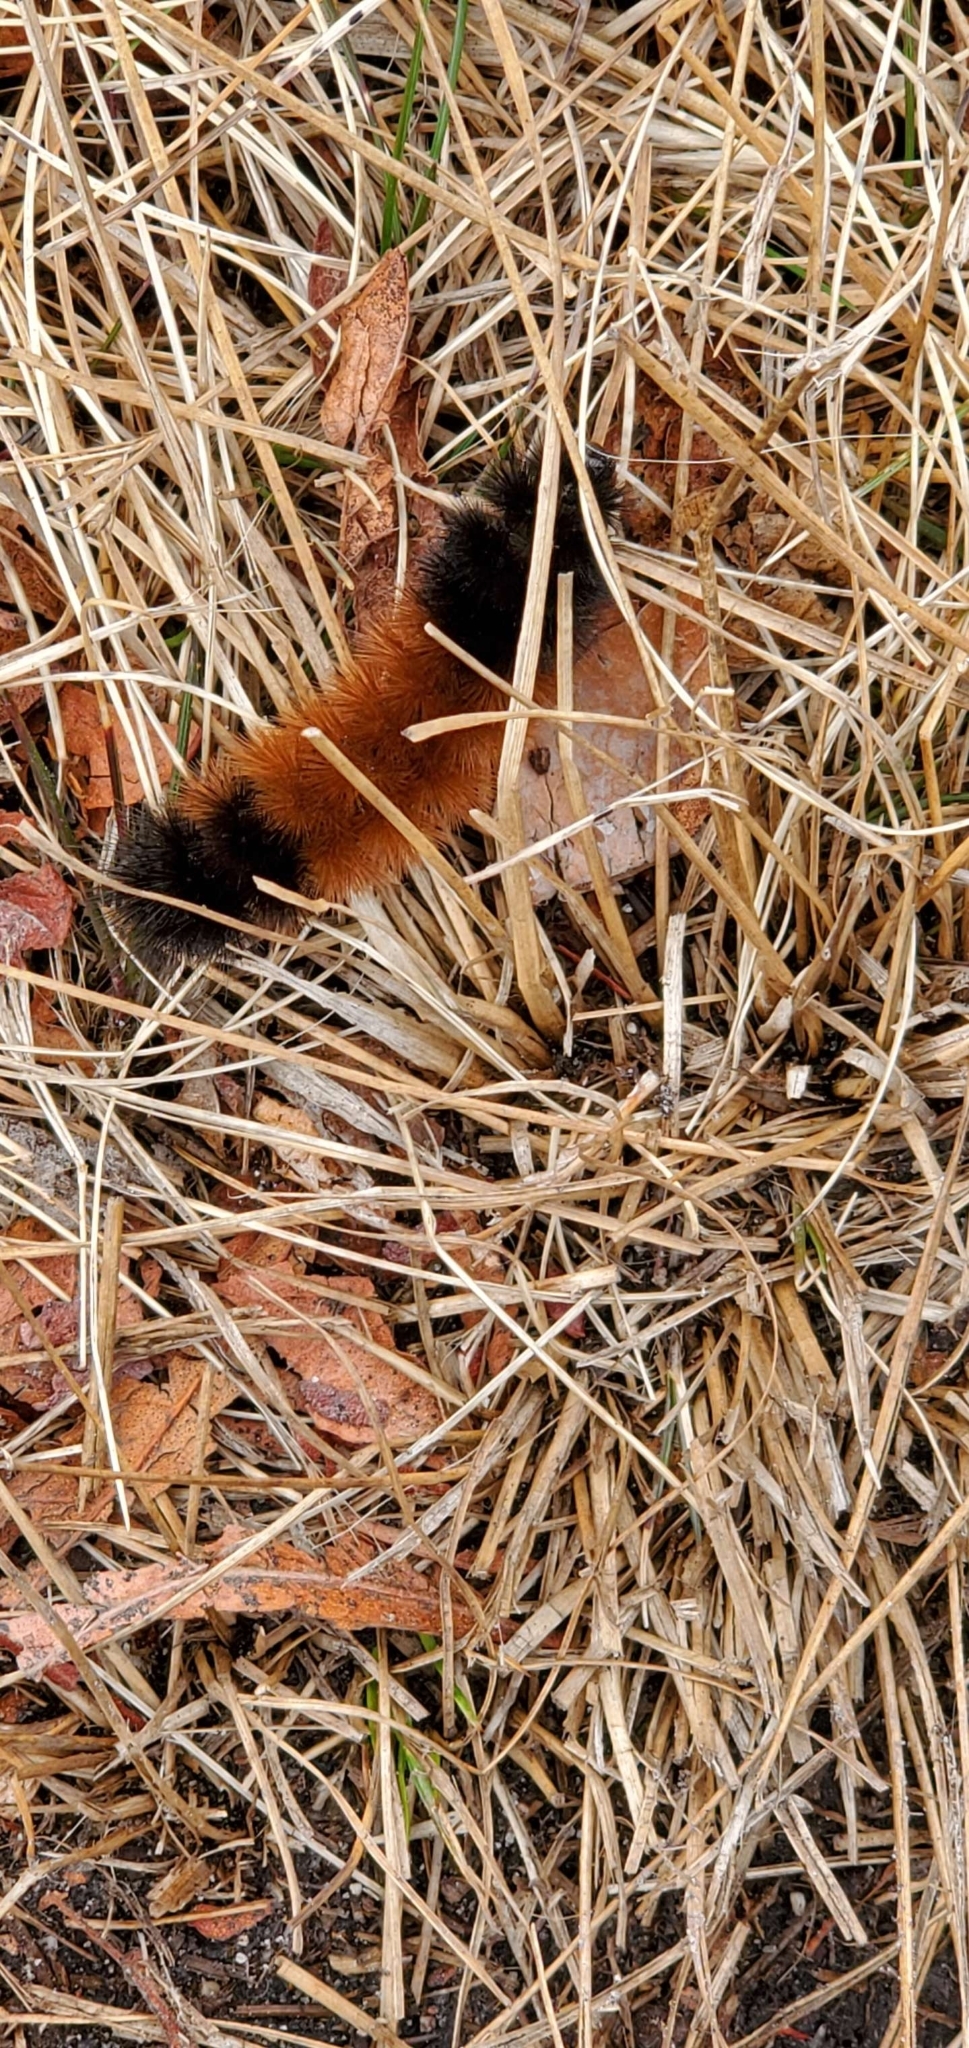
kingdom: Animalia
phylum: Arthropoda
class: Insecta
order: Lepidoptera
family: Erebidae
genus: Pyrrharctia
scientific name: Pyrrharctia isabella
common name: Isabella tiger moth
